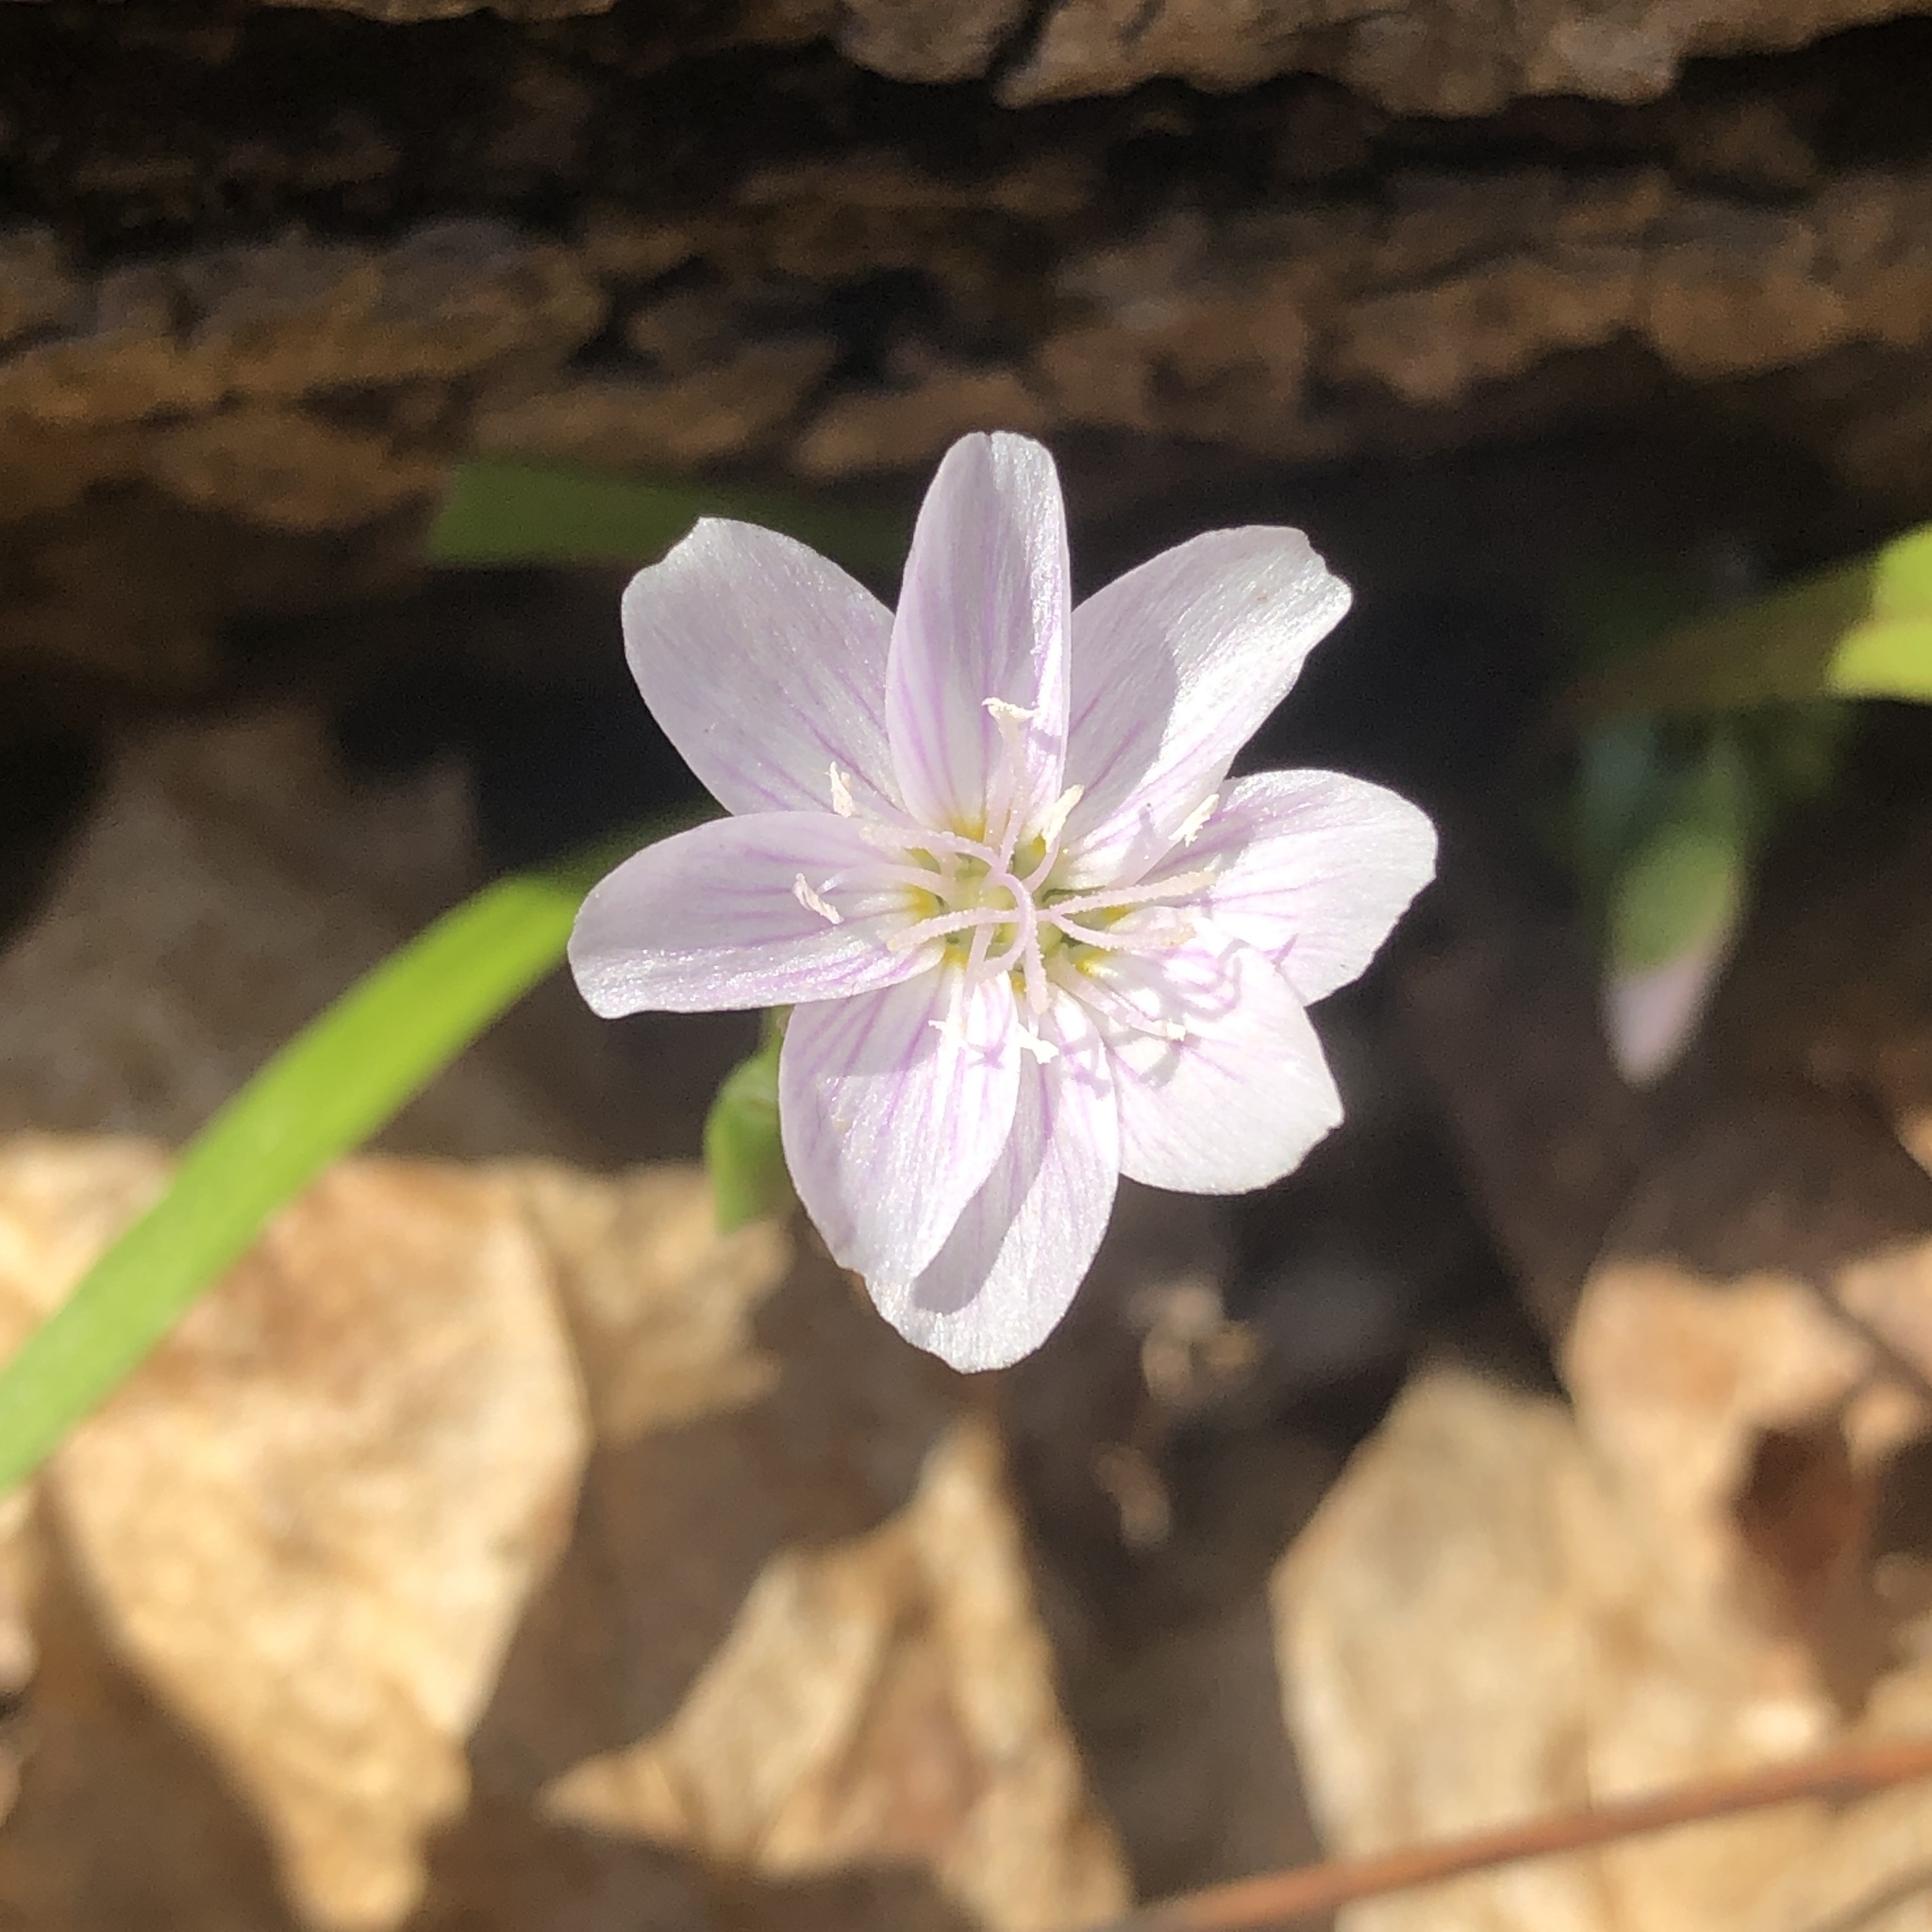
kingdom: Plantae
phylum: Tracheophyta
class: Magnoliopsida
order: Caryophyllales
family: Montiaceae
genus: Claytonia
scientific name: Claytonia virginica
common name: Virginia springbeauty
